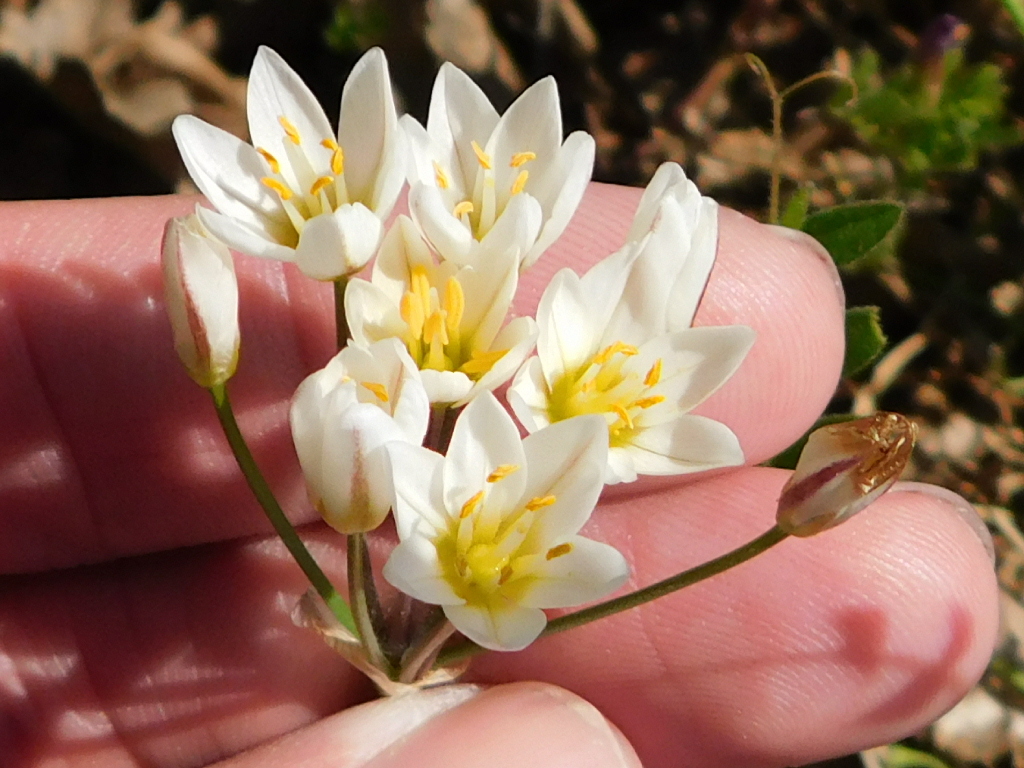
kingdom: Plantae
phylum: Tracheophyta
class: Liliopsida
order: Asparagales
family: Amaryllidaceae
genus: Nothoscordum
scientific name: Nothoscordum bivalve
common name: Crow-poison
